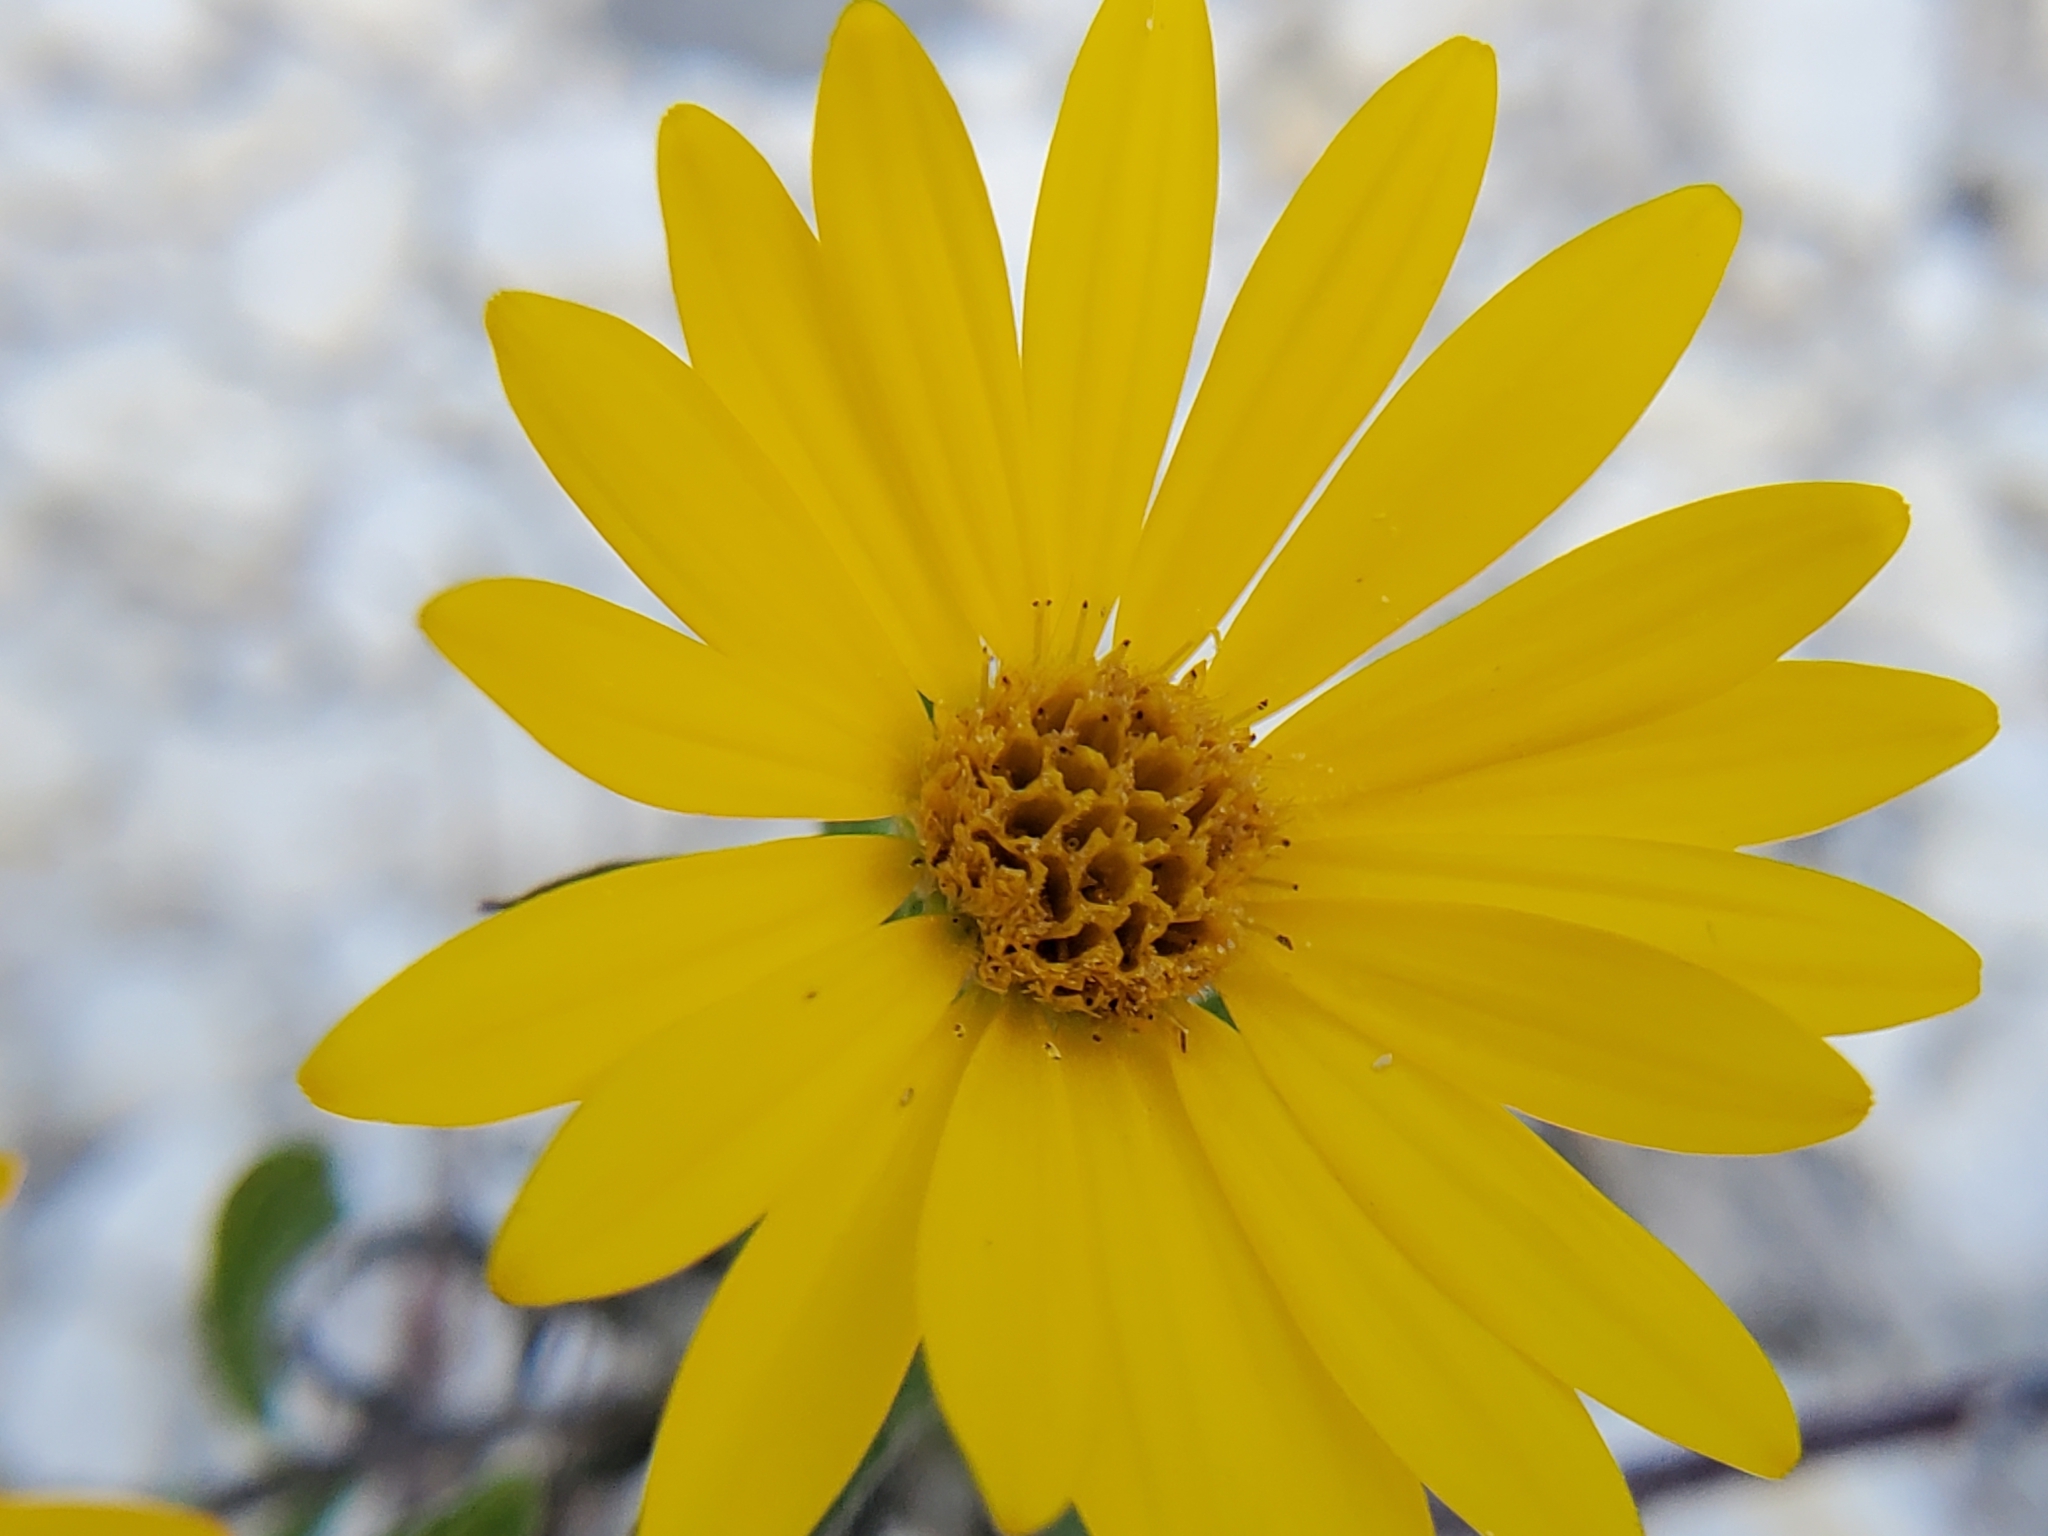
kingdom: Plantae
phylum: Tracheophyta
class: Magnoliopsida
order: Asterales
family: Asteraceae
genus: Heterotheca
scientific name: Heterotheca subaxillaris
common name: Camphorweed
